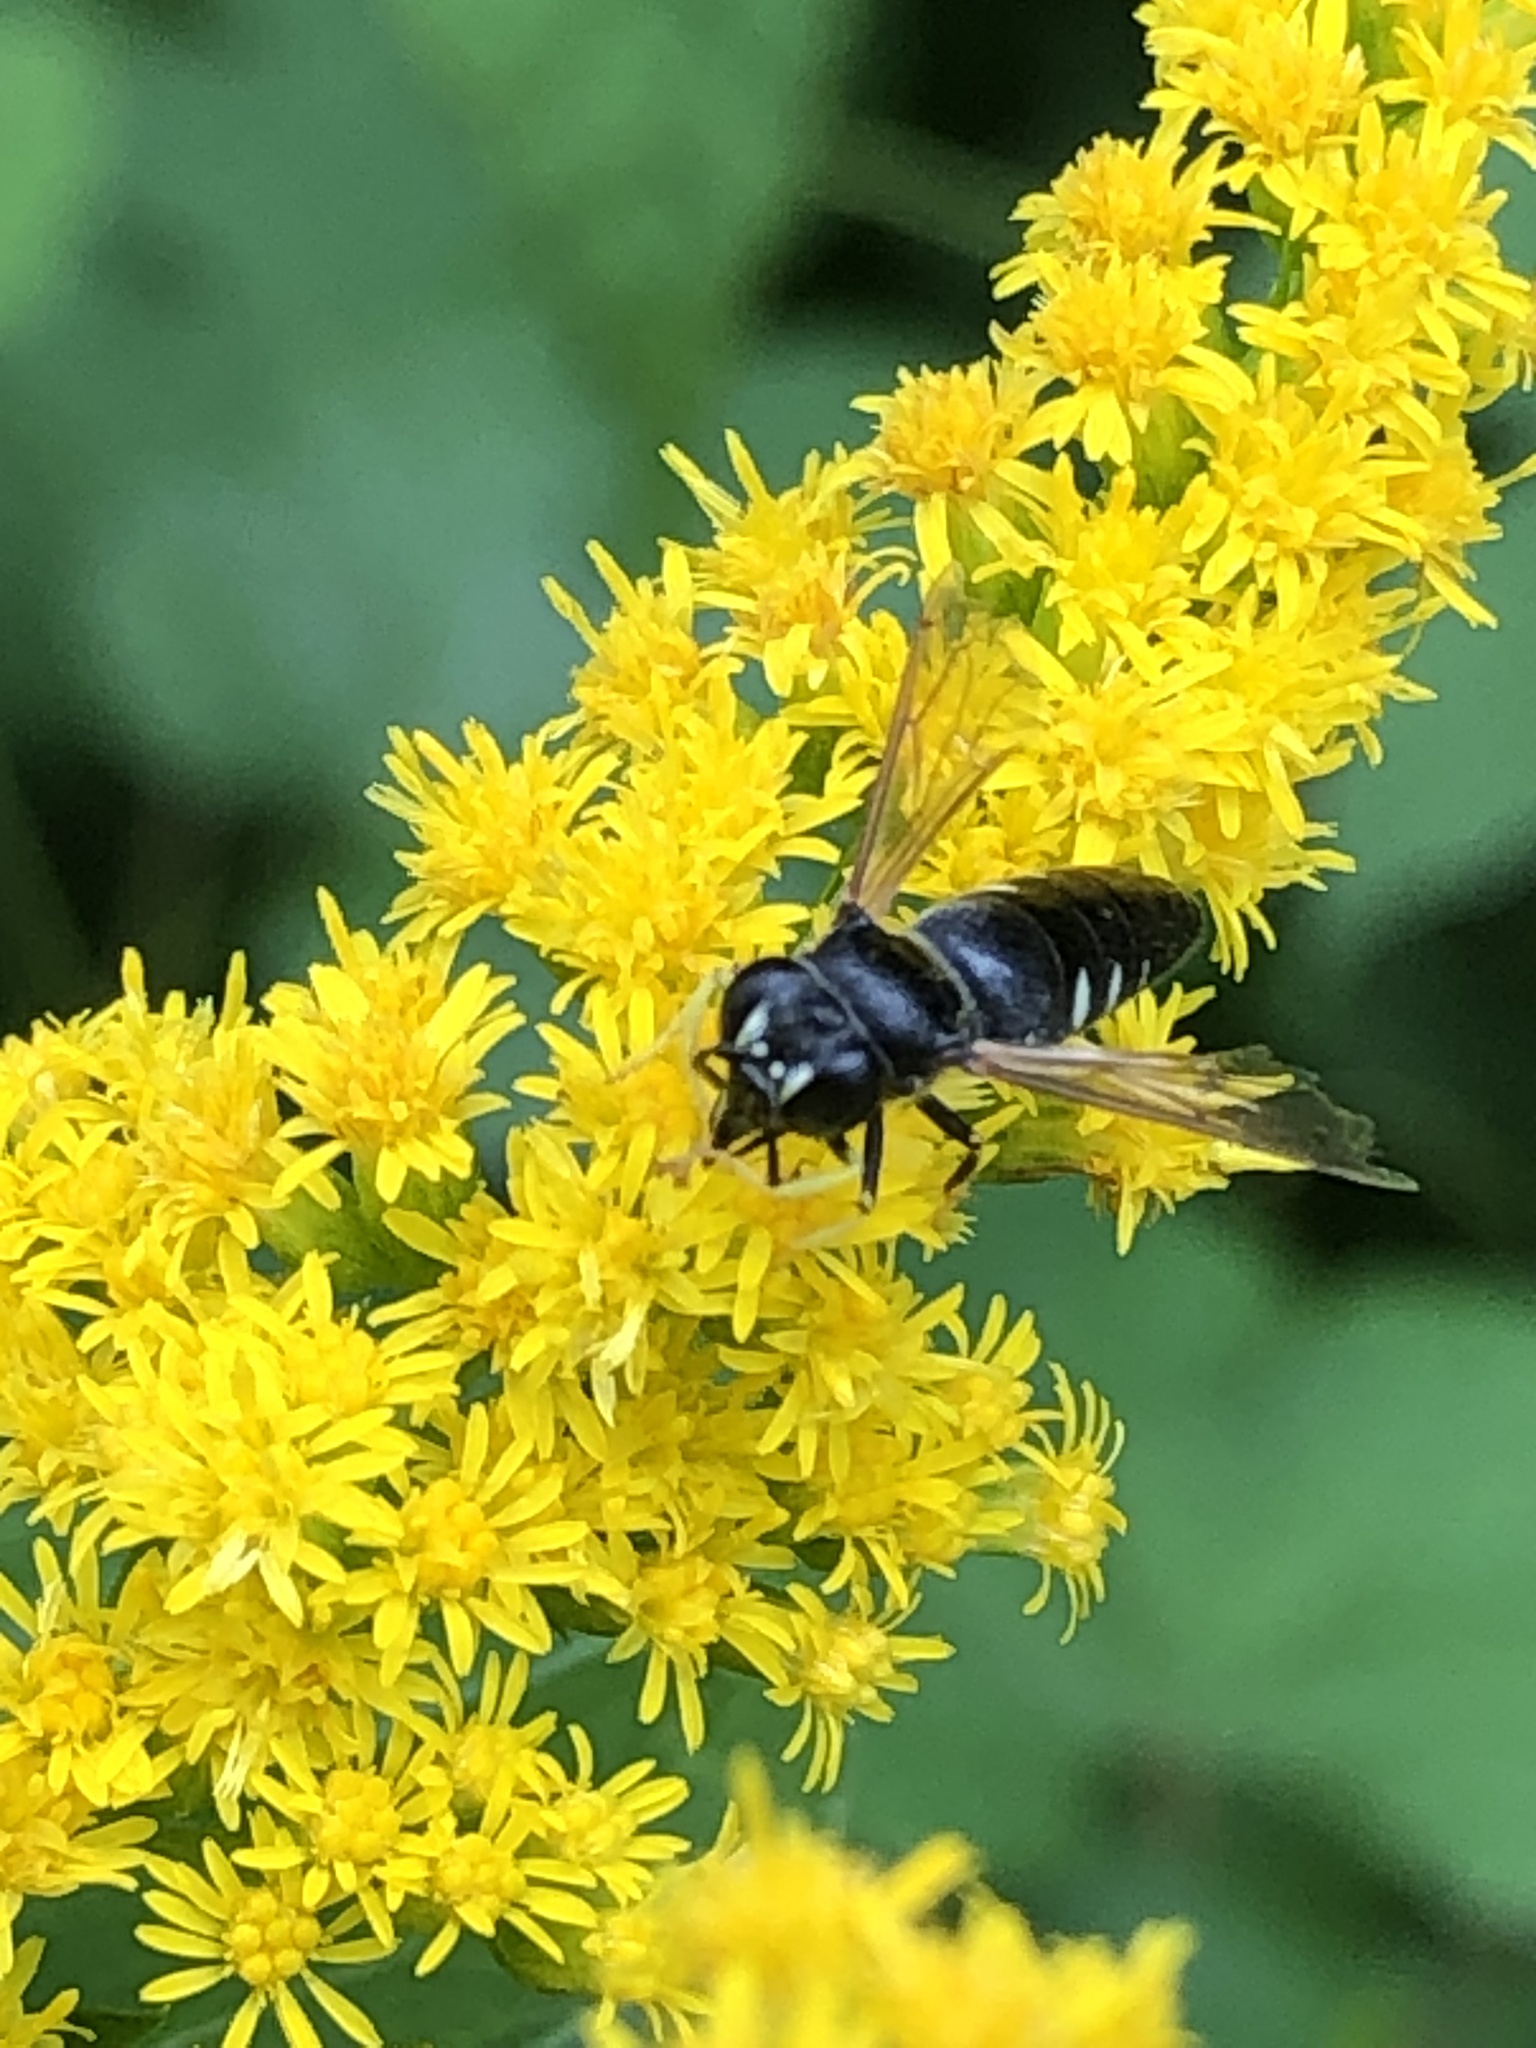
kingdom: Animalia
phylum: Arthropoda
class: Insecta
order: Hymenoptera
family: Crabronidae
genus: Bicyrtes
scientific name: Bicyrtes quadrifasciatus
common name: Four-banded stink bug hunter wasp
